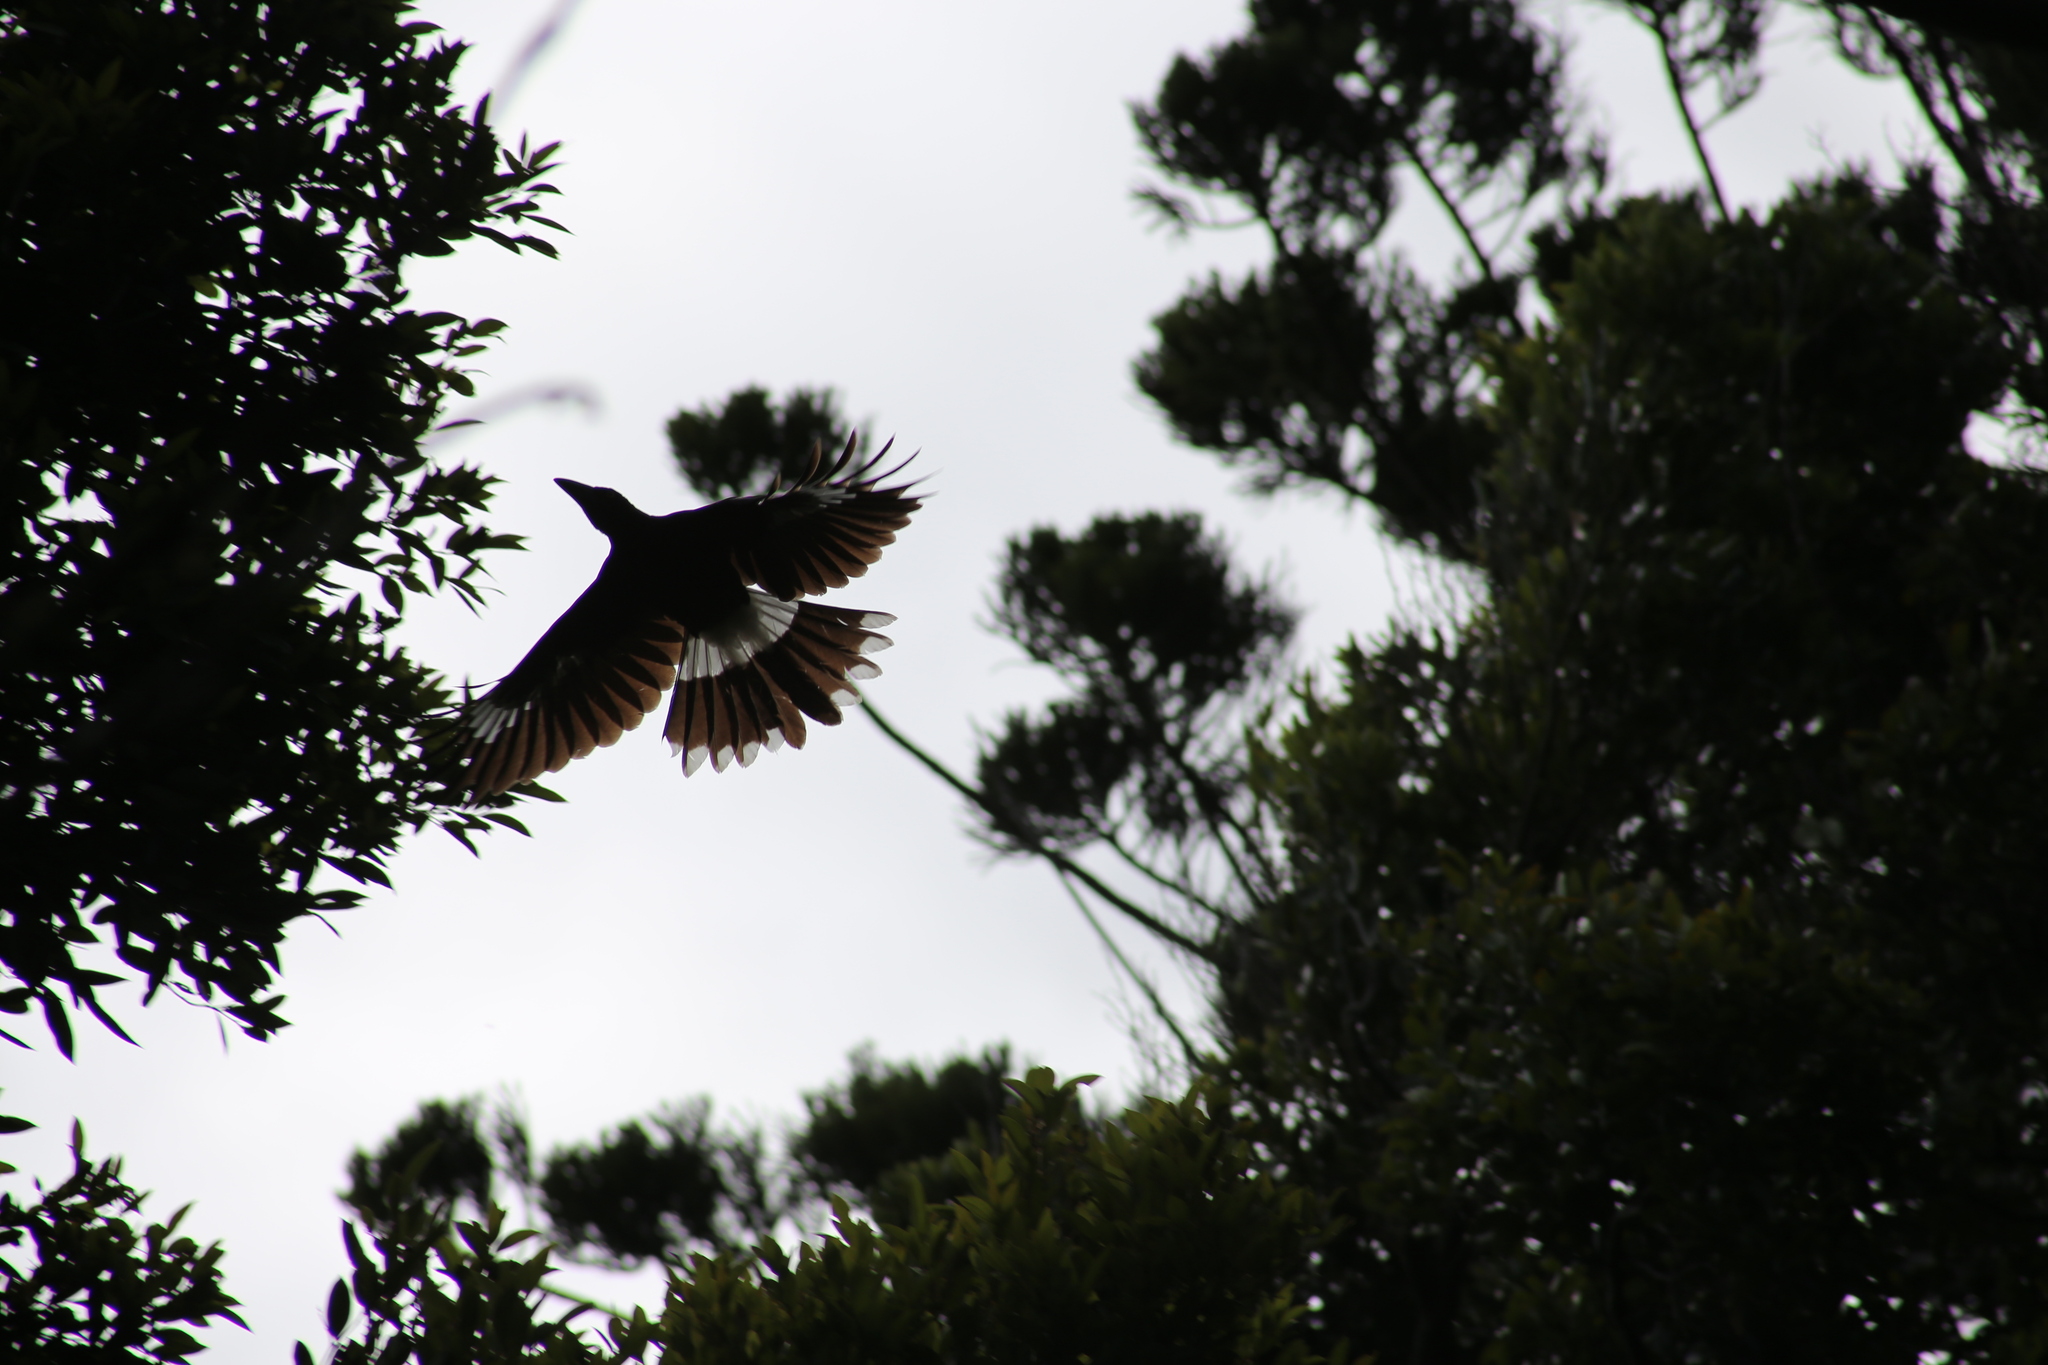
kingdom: Animalia
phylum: Chordata
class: Aves
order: Passeriformes
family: Cracticidae
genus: Strepera
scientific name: Strepera graculina
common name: Pied currawong
